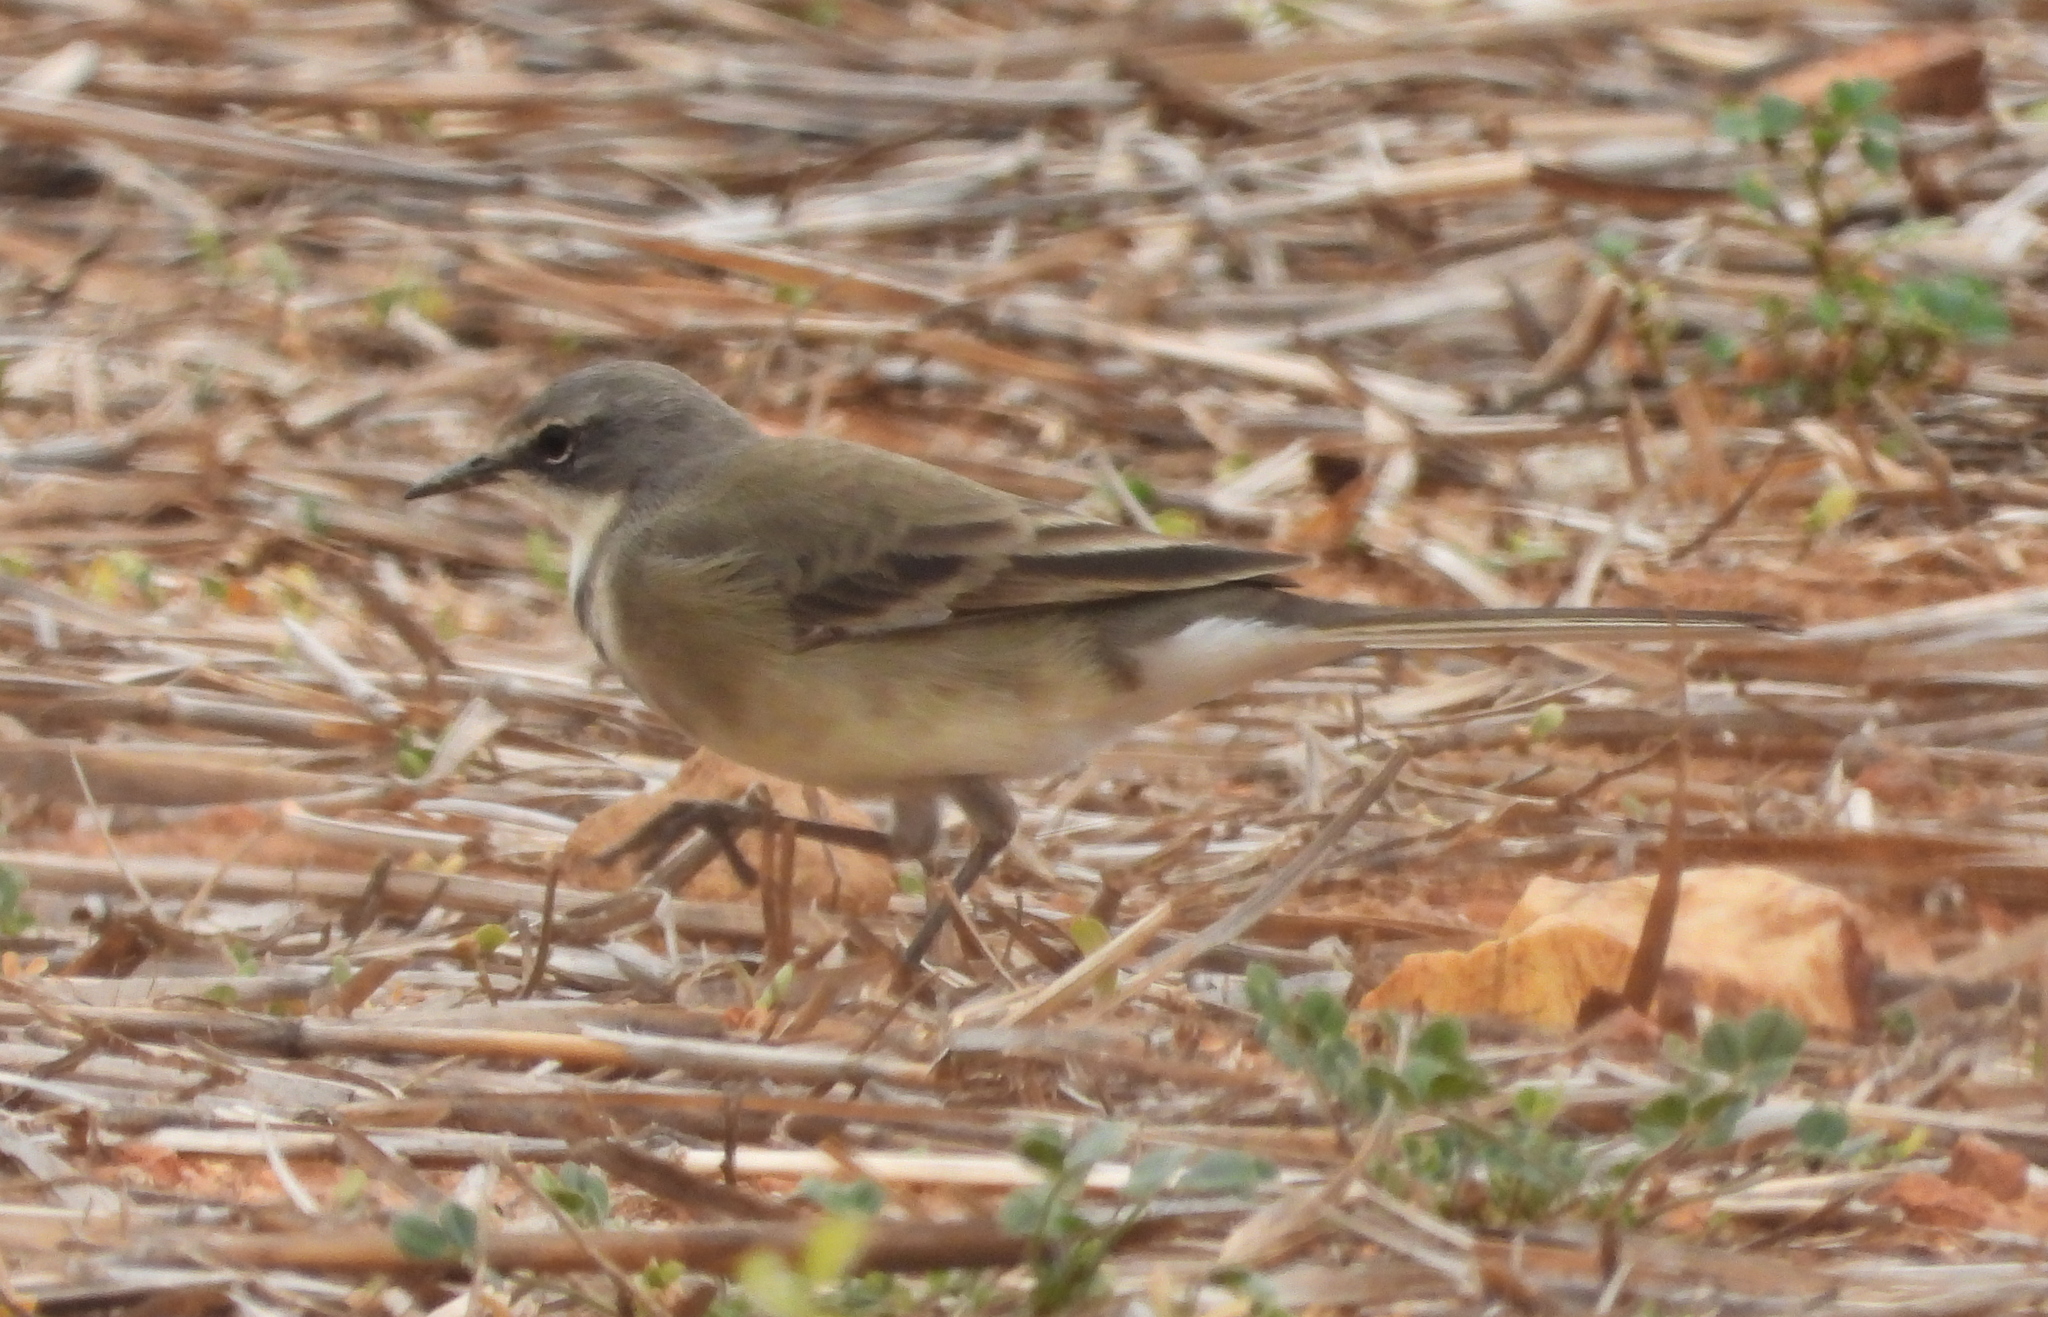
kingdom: Animalia
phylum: Chordata
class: Aves
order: Passeriformes
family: Motacillidae
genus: Motacilla
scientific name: Motacilla capensis
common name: Cape wagtail
